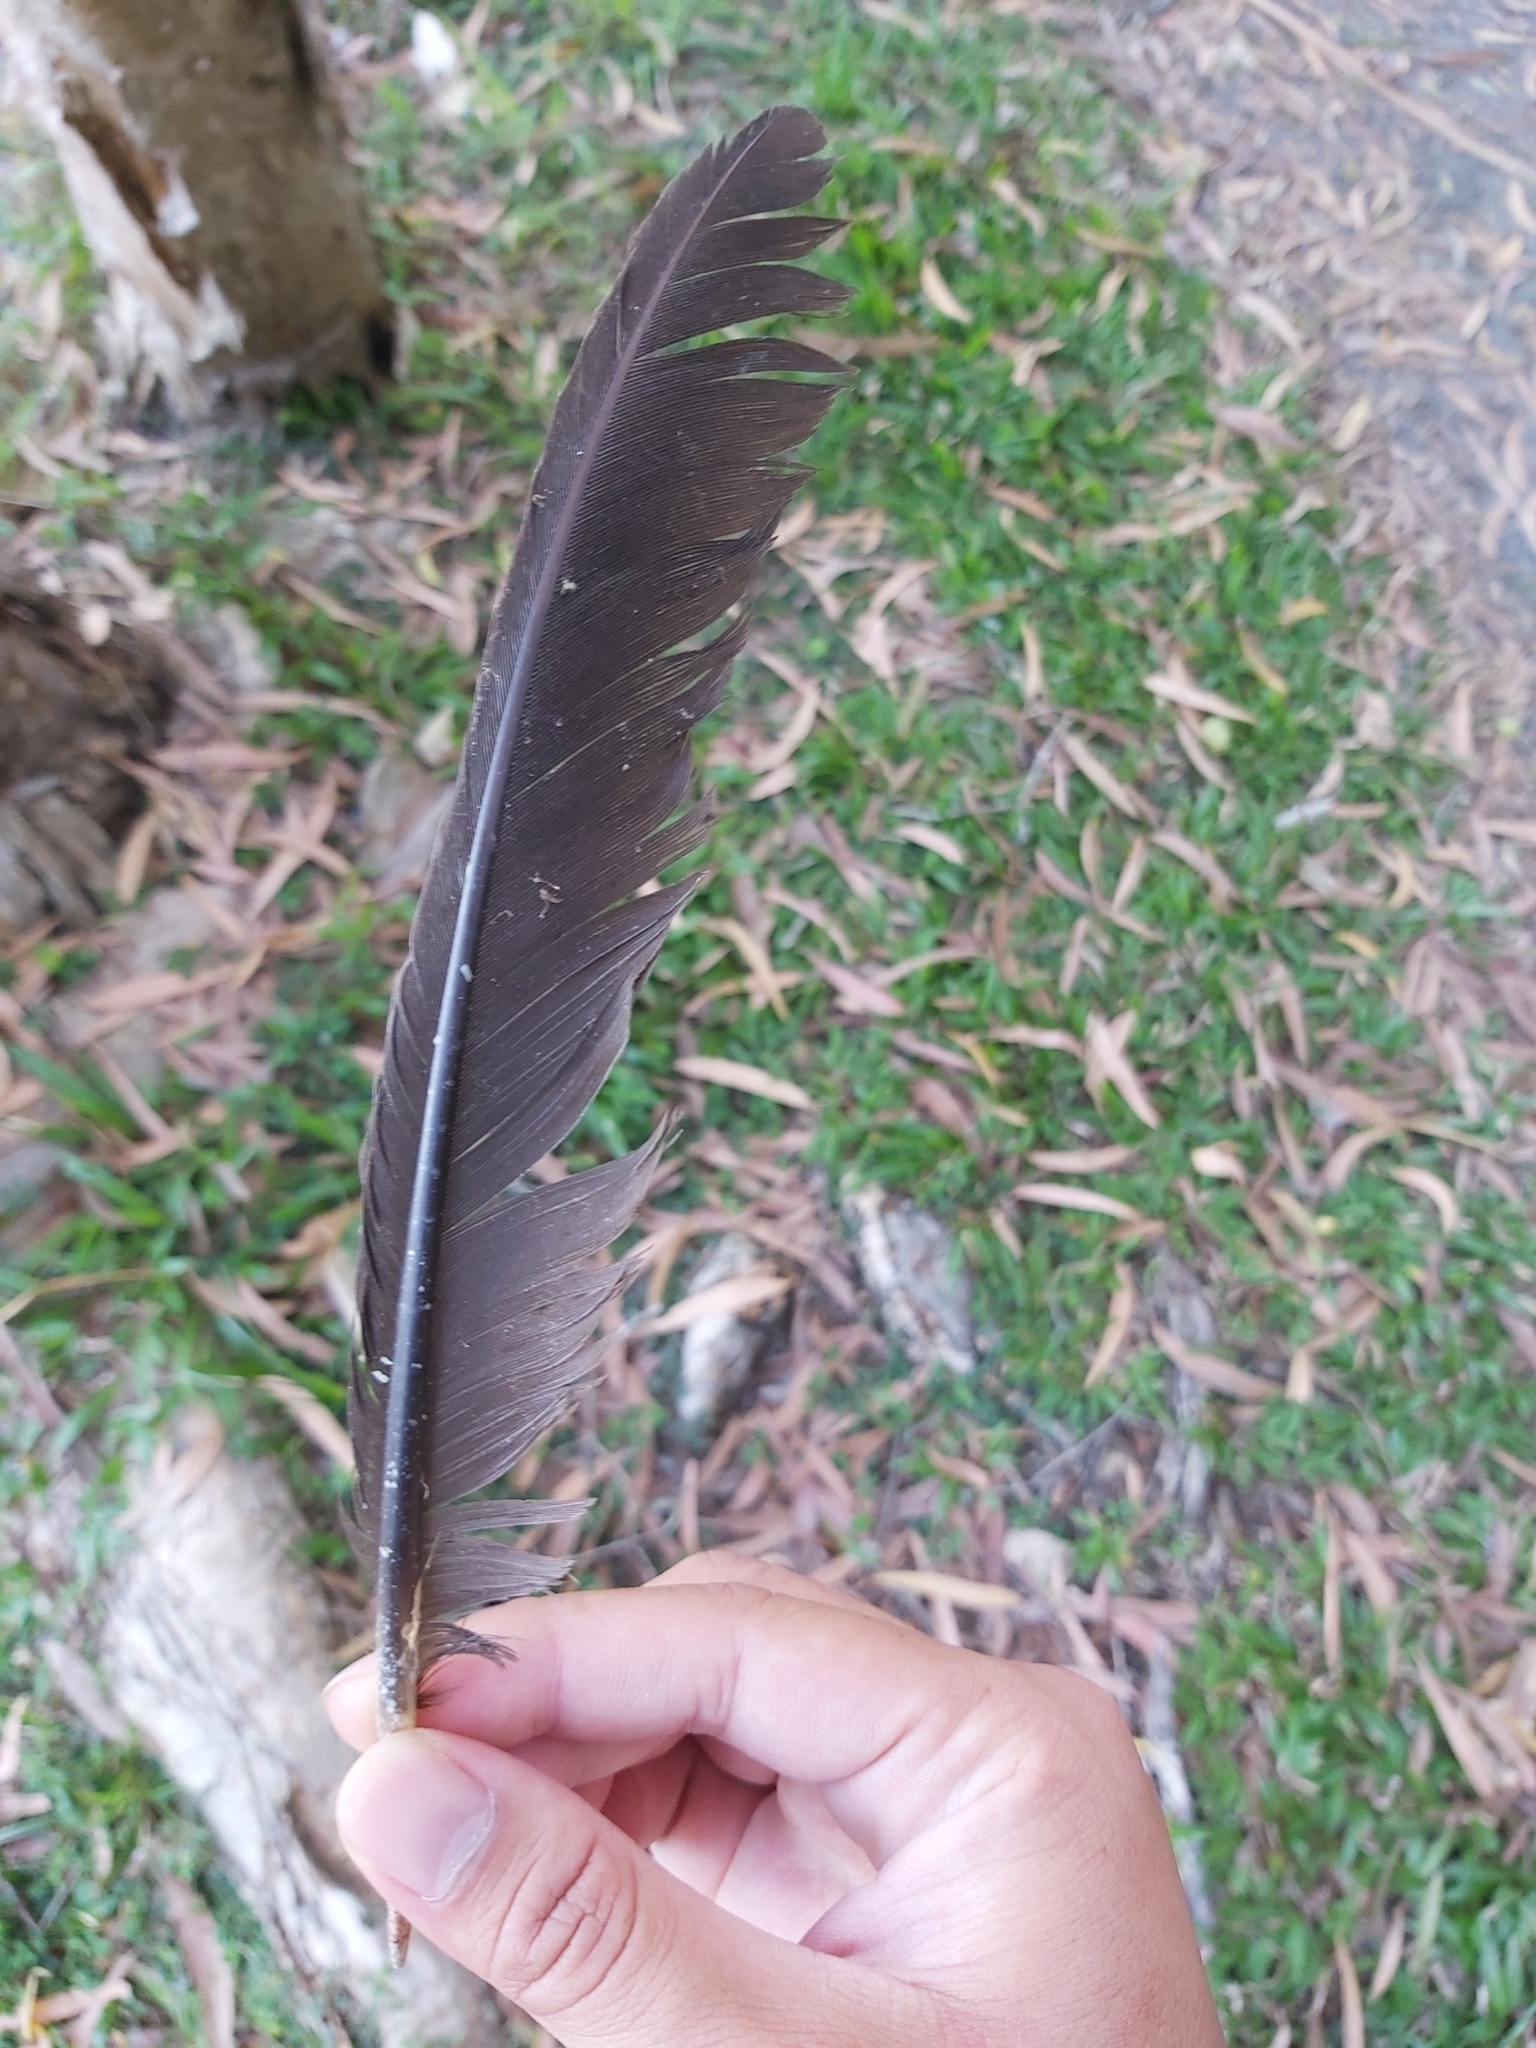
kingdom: Animalia
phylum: Chordata
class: Aves
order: Galliformes
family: Megapodiidae
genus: Alectura
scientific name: Alectura lathami
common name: Australian brushturkey
